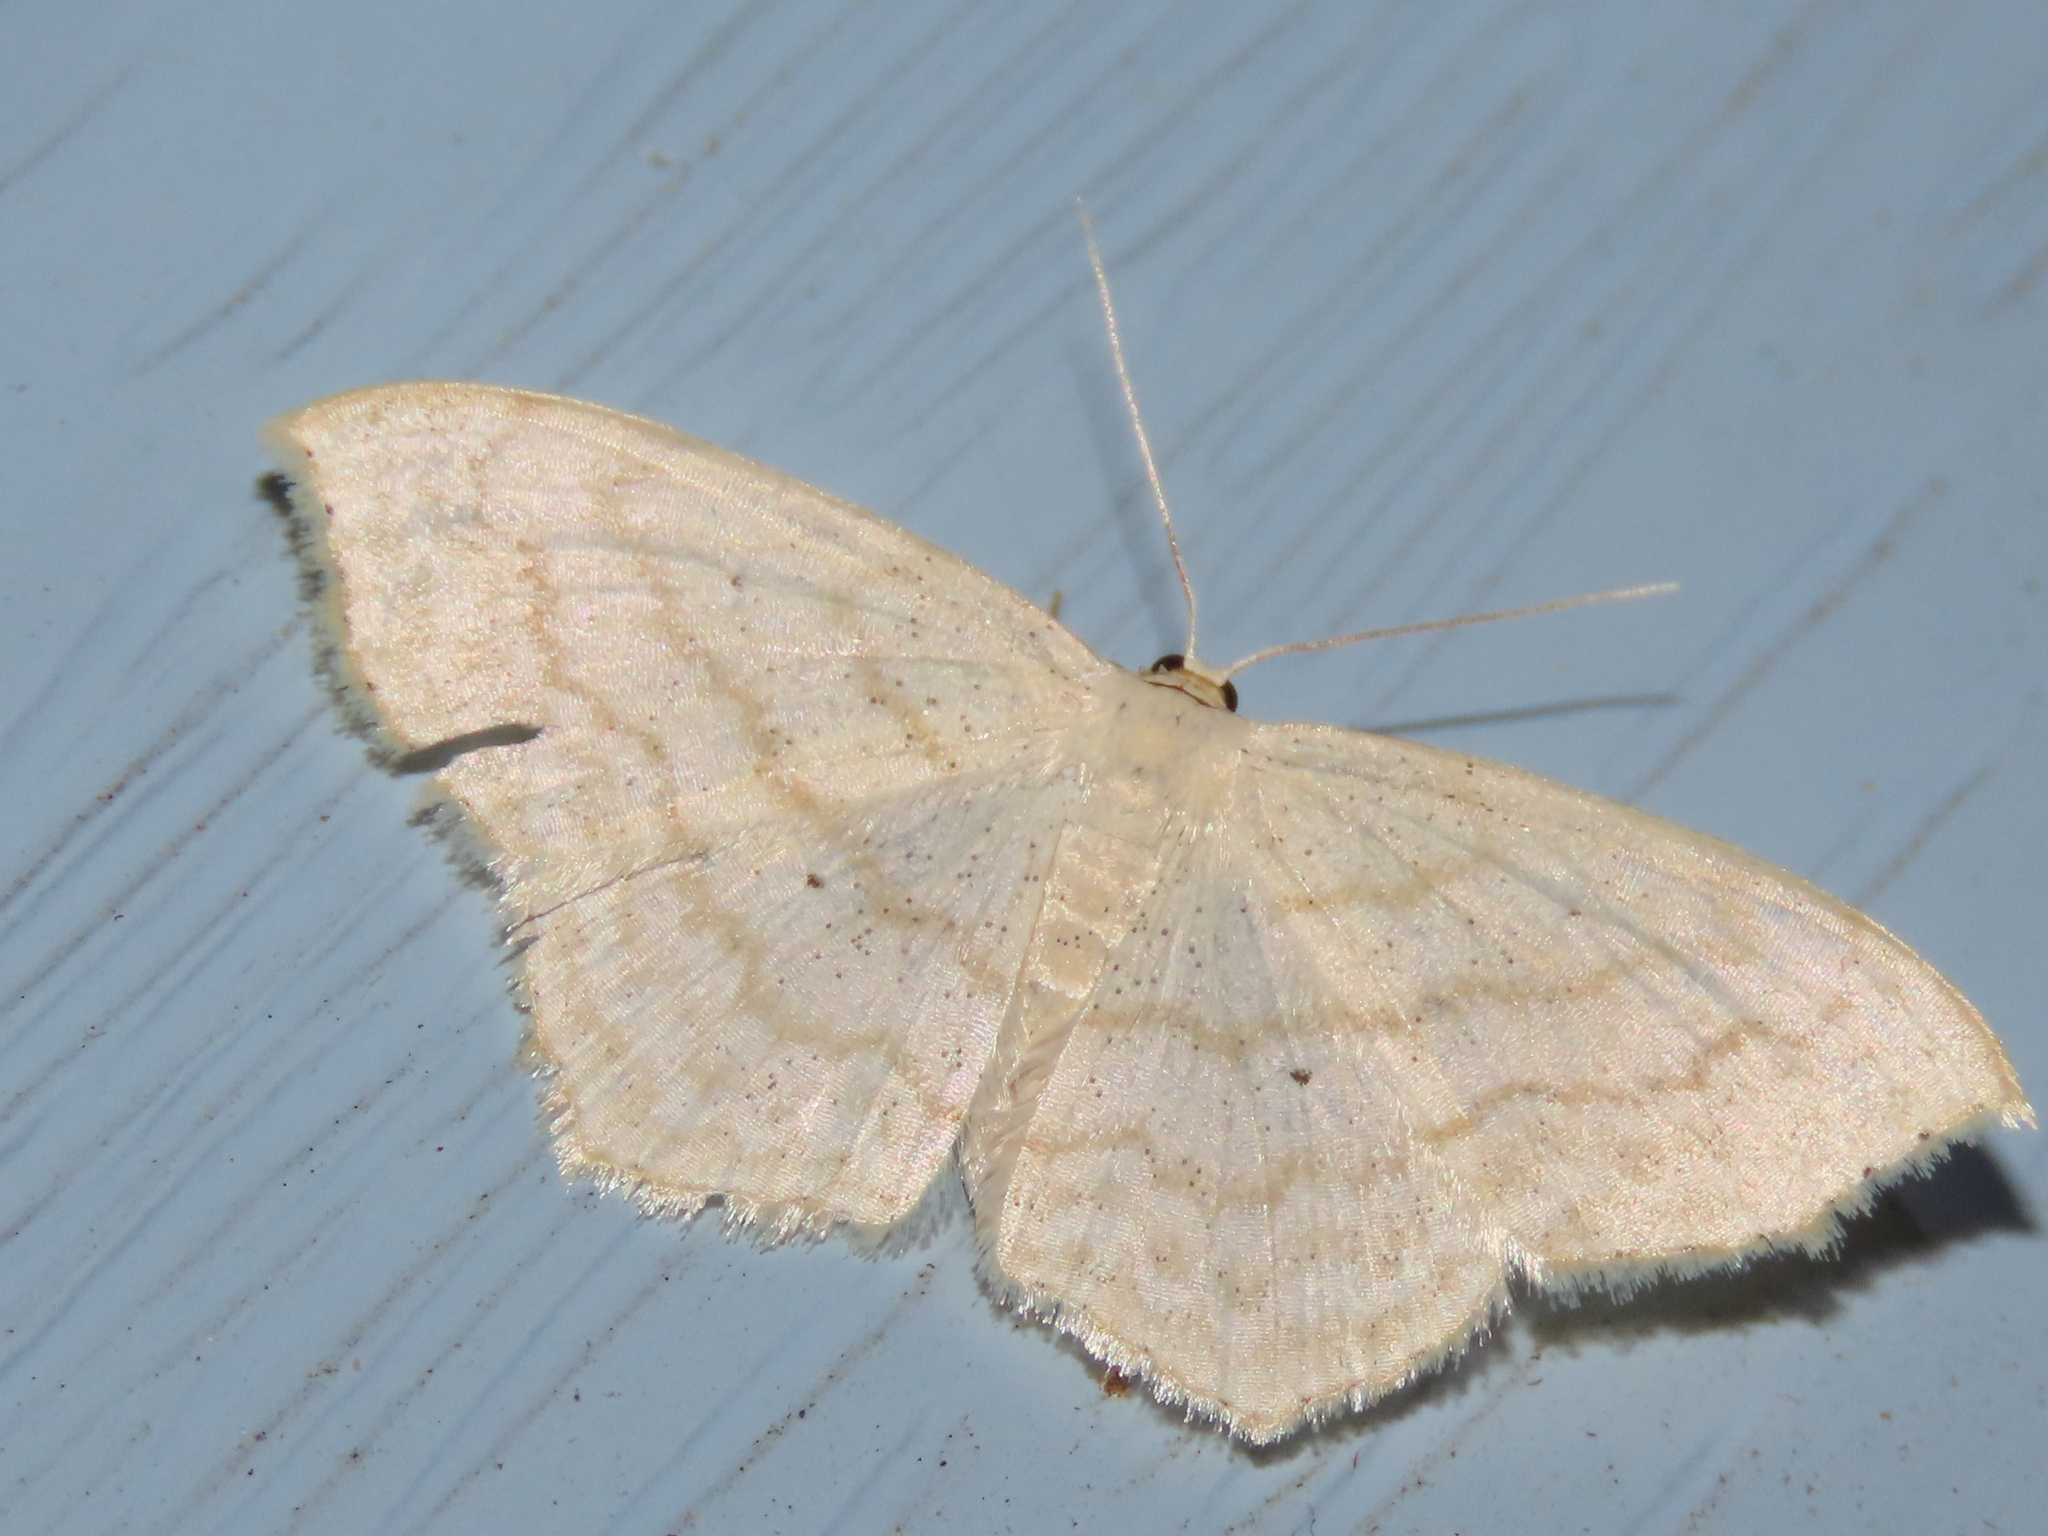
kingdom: Animalia
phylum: Arthropoda
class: Insecta
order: Lepidoptera
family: Geometridae
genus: Scopula
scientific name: Scopula limboundata
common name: Large lace border
